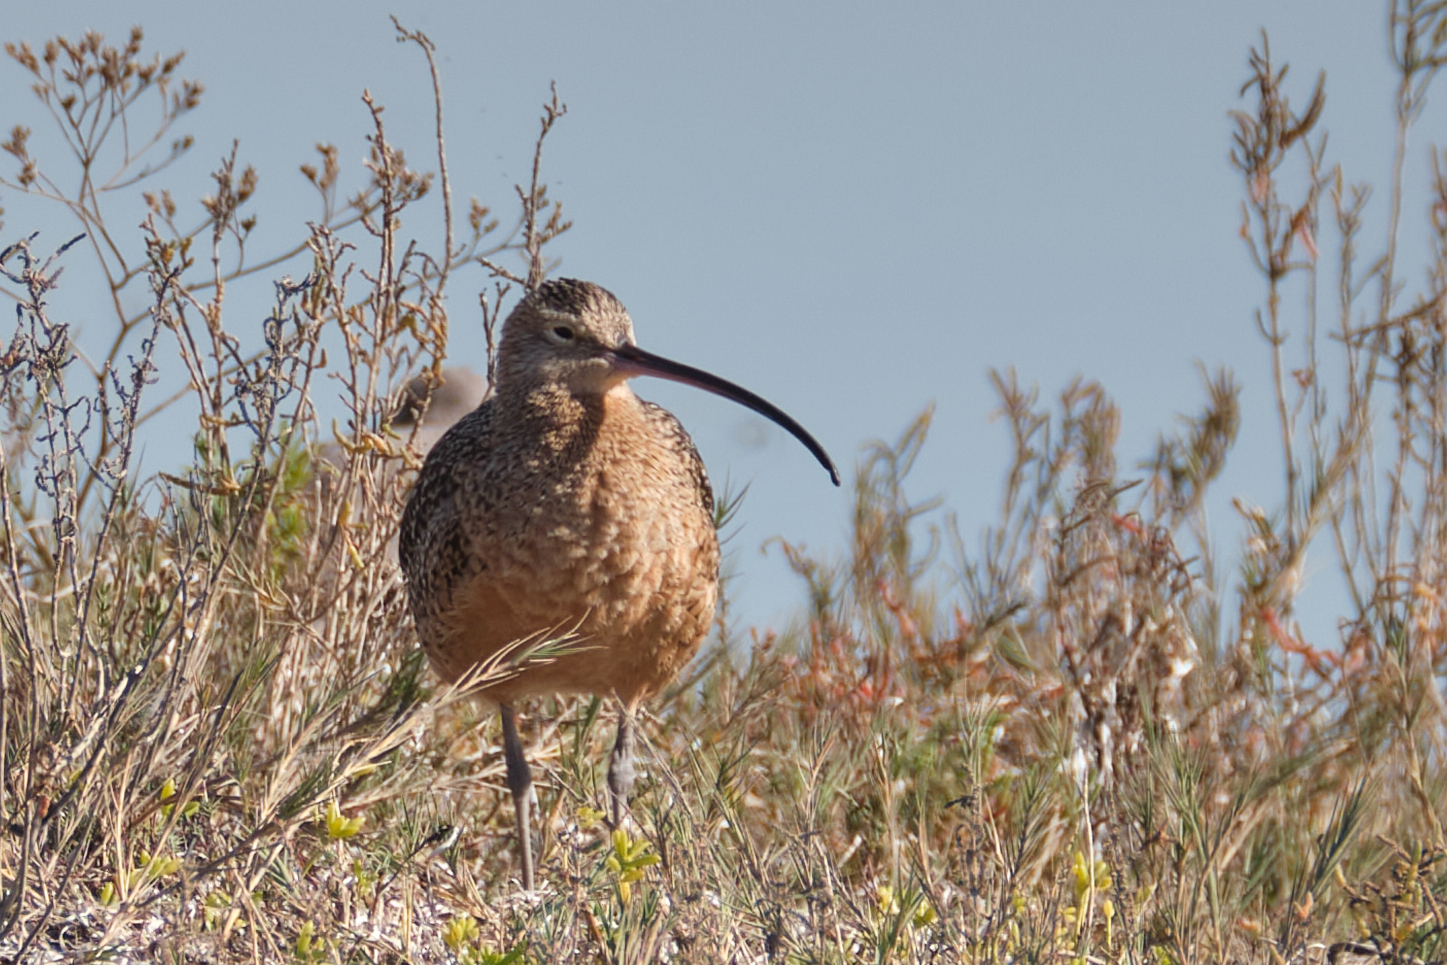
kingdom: Animalia
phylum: Chordata
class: Aves
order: Charadriiformes
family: Scolopacidae
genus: Numenius
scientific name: Numenius americanus
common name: Long-billed curlew
